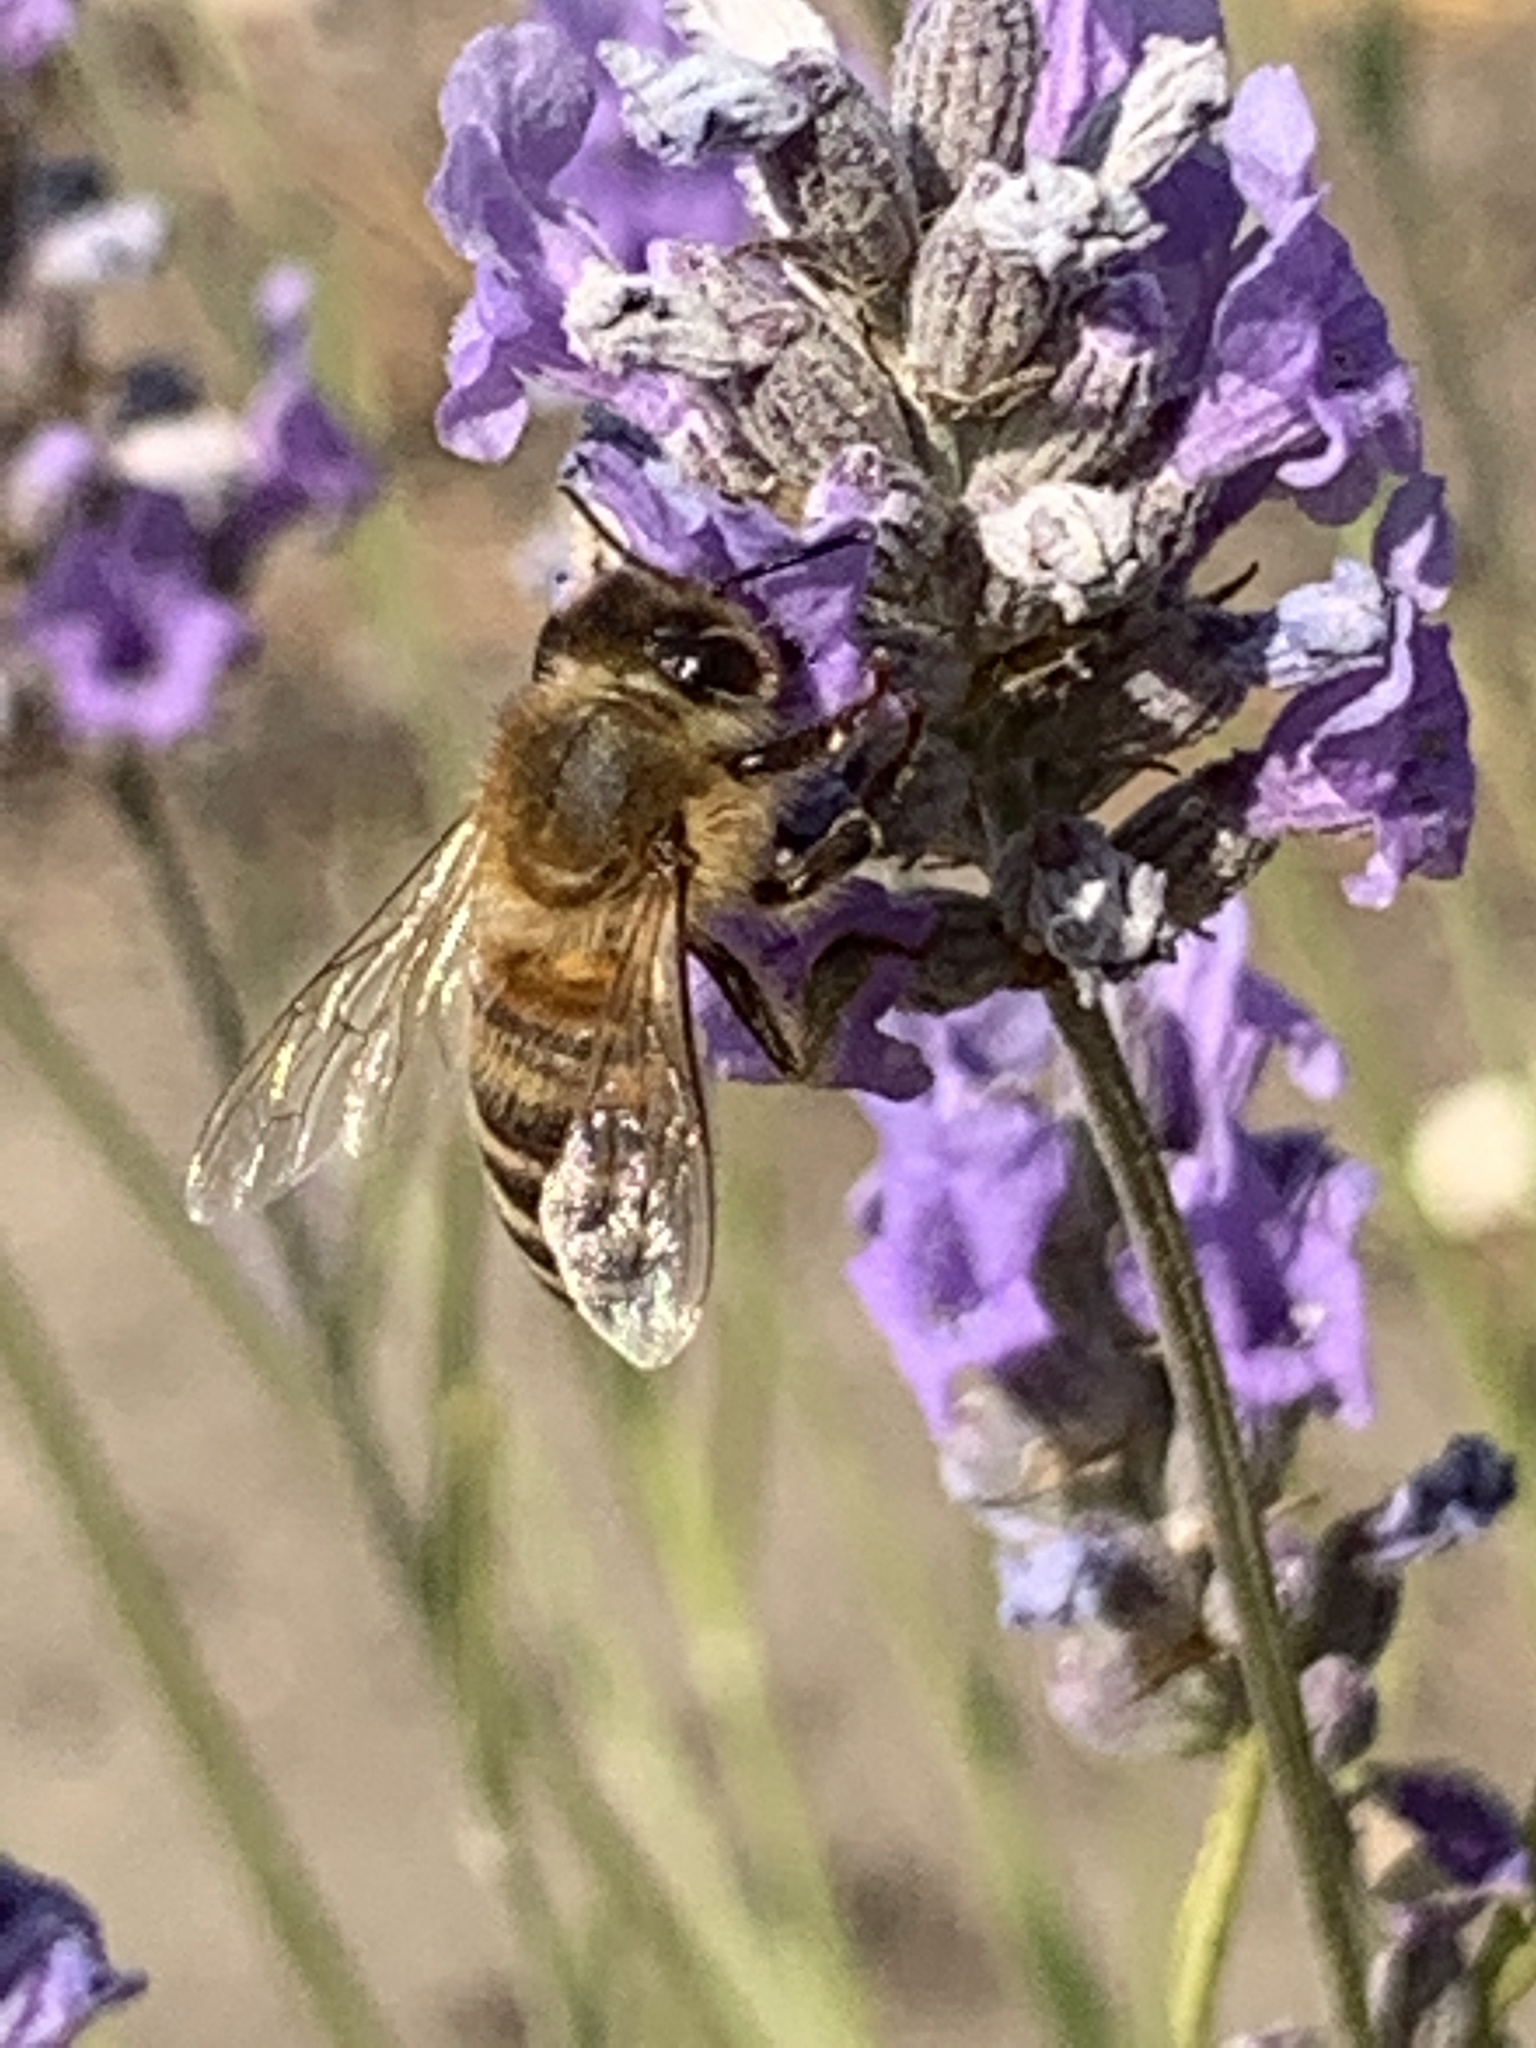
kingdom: Animalia
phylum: Arthropoda
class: Insecta
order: Hymenoptera
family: Apidae
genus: Apis
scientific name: Apis mellifera
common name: Honey bee
